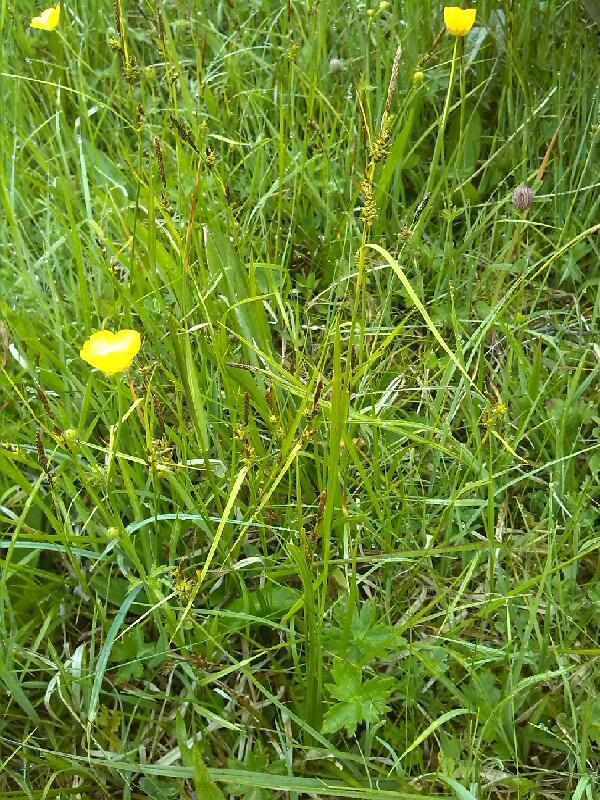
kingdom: Plantae
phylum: Tracheophyta
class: Liliopsida
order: Poales
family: Cyperaceae
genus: Carex
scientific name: Carex hostiana
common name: Tawny sedge
